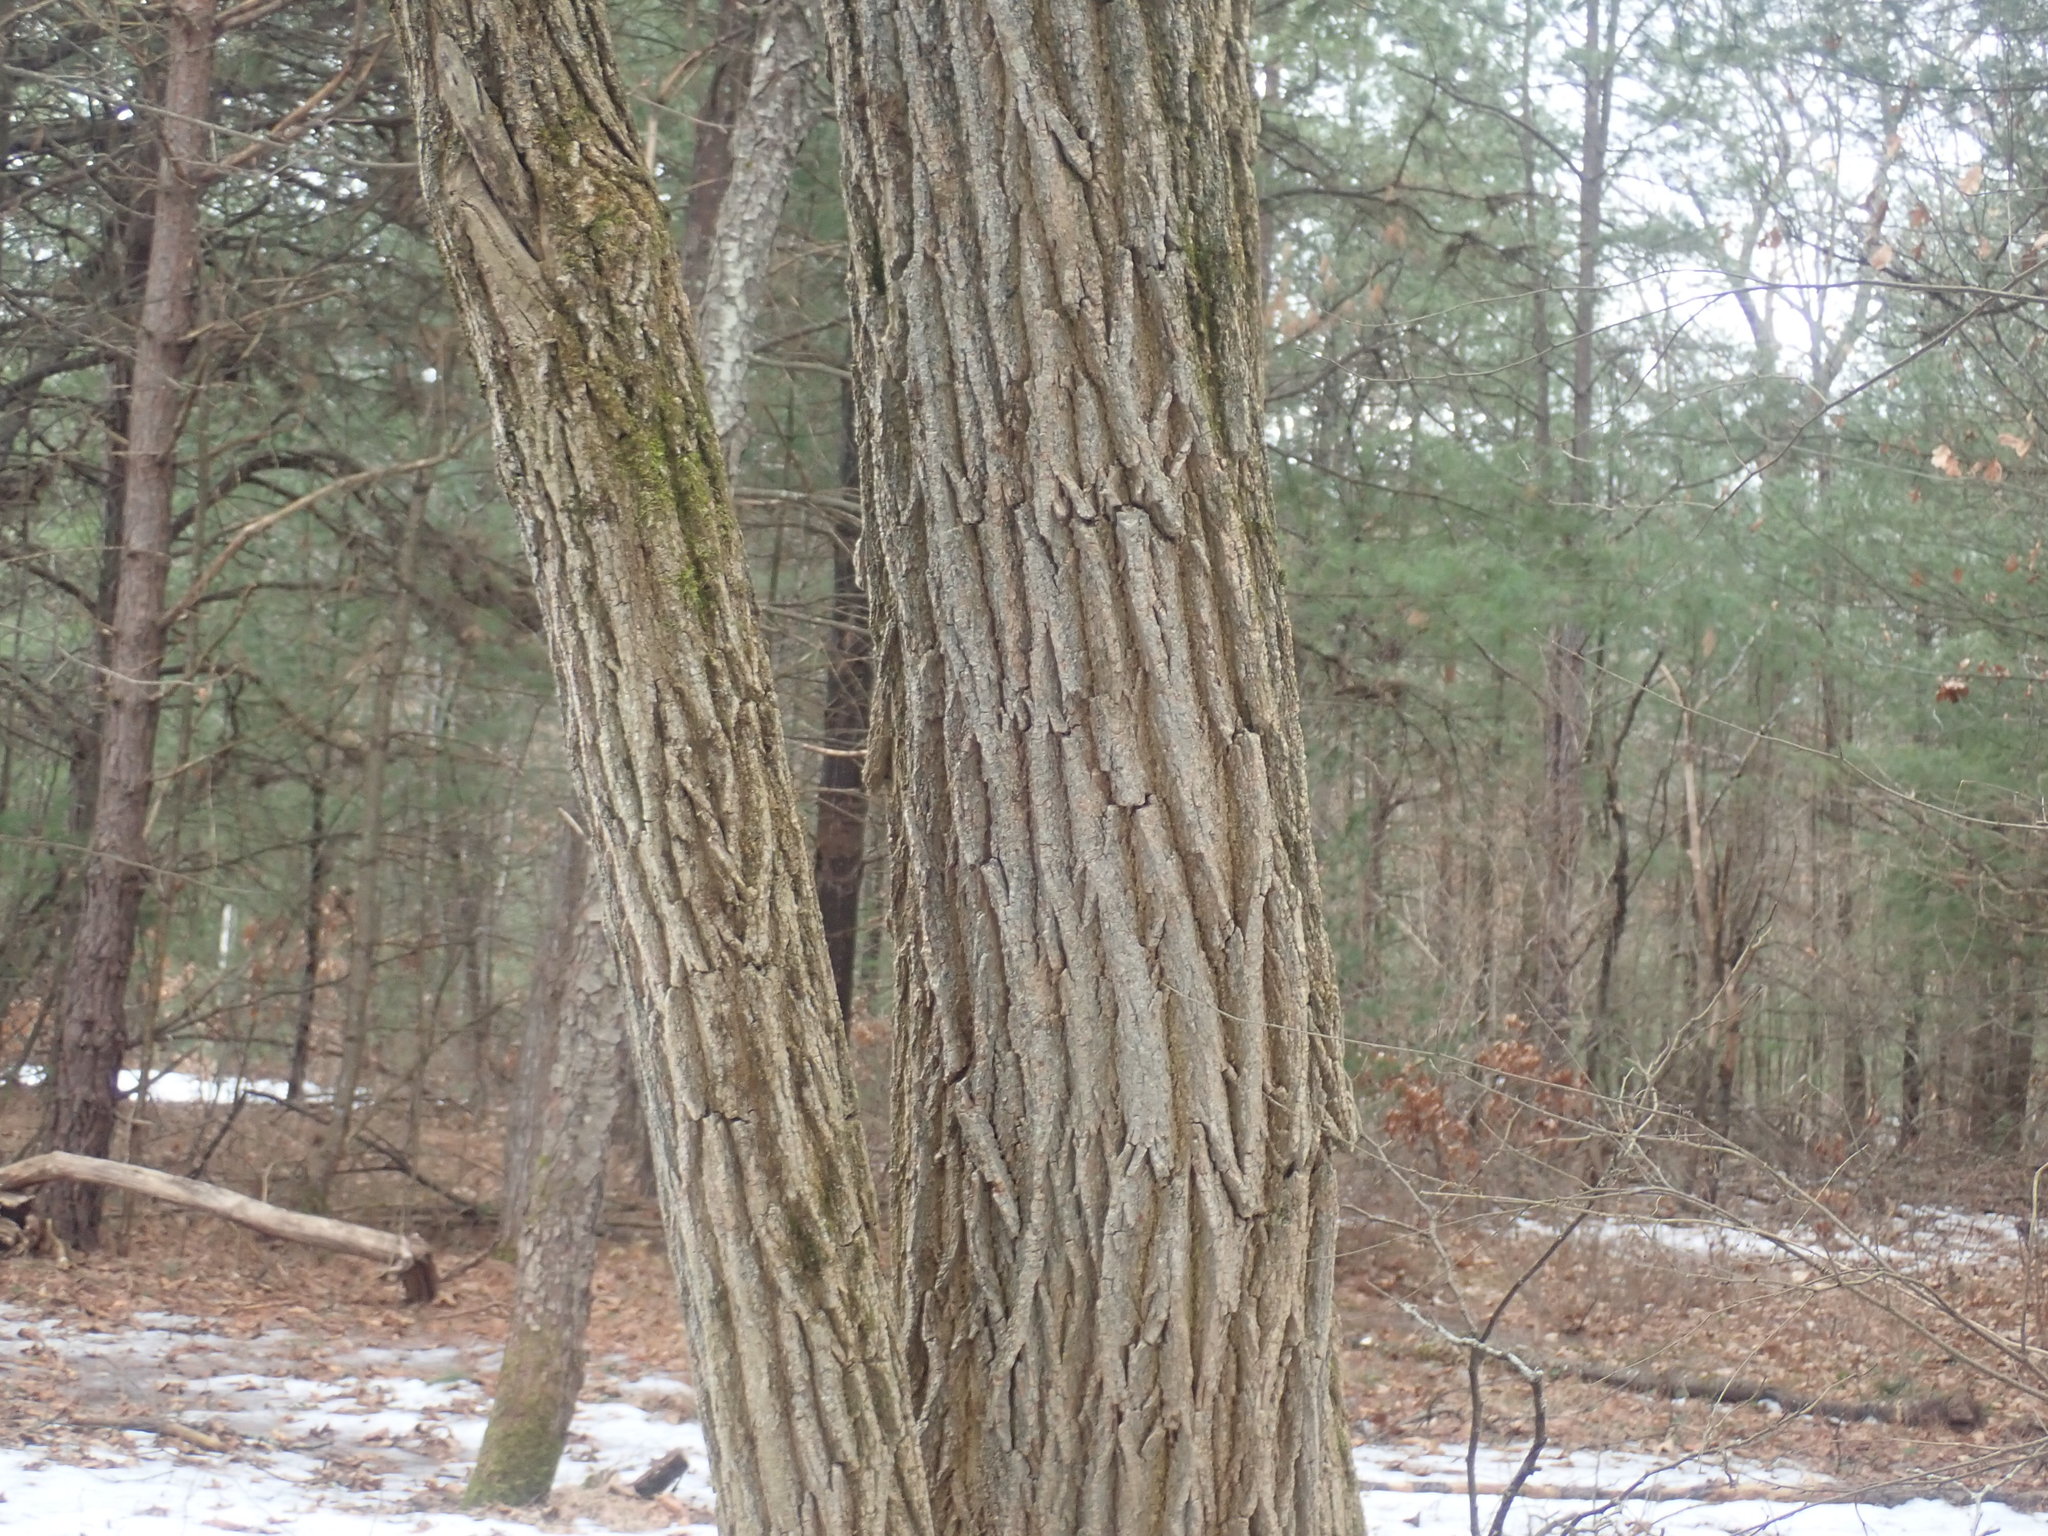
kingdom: Plantae
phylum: Tracheophyta
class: Magnoliopsida
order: Fabales
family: Fabaceae
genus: Robinia
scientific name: Robinia pseudoacacia
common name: Black locust
